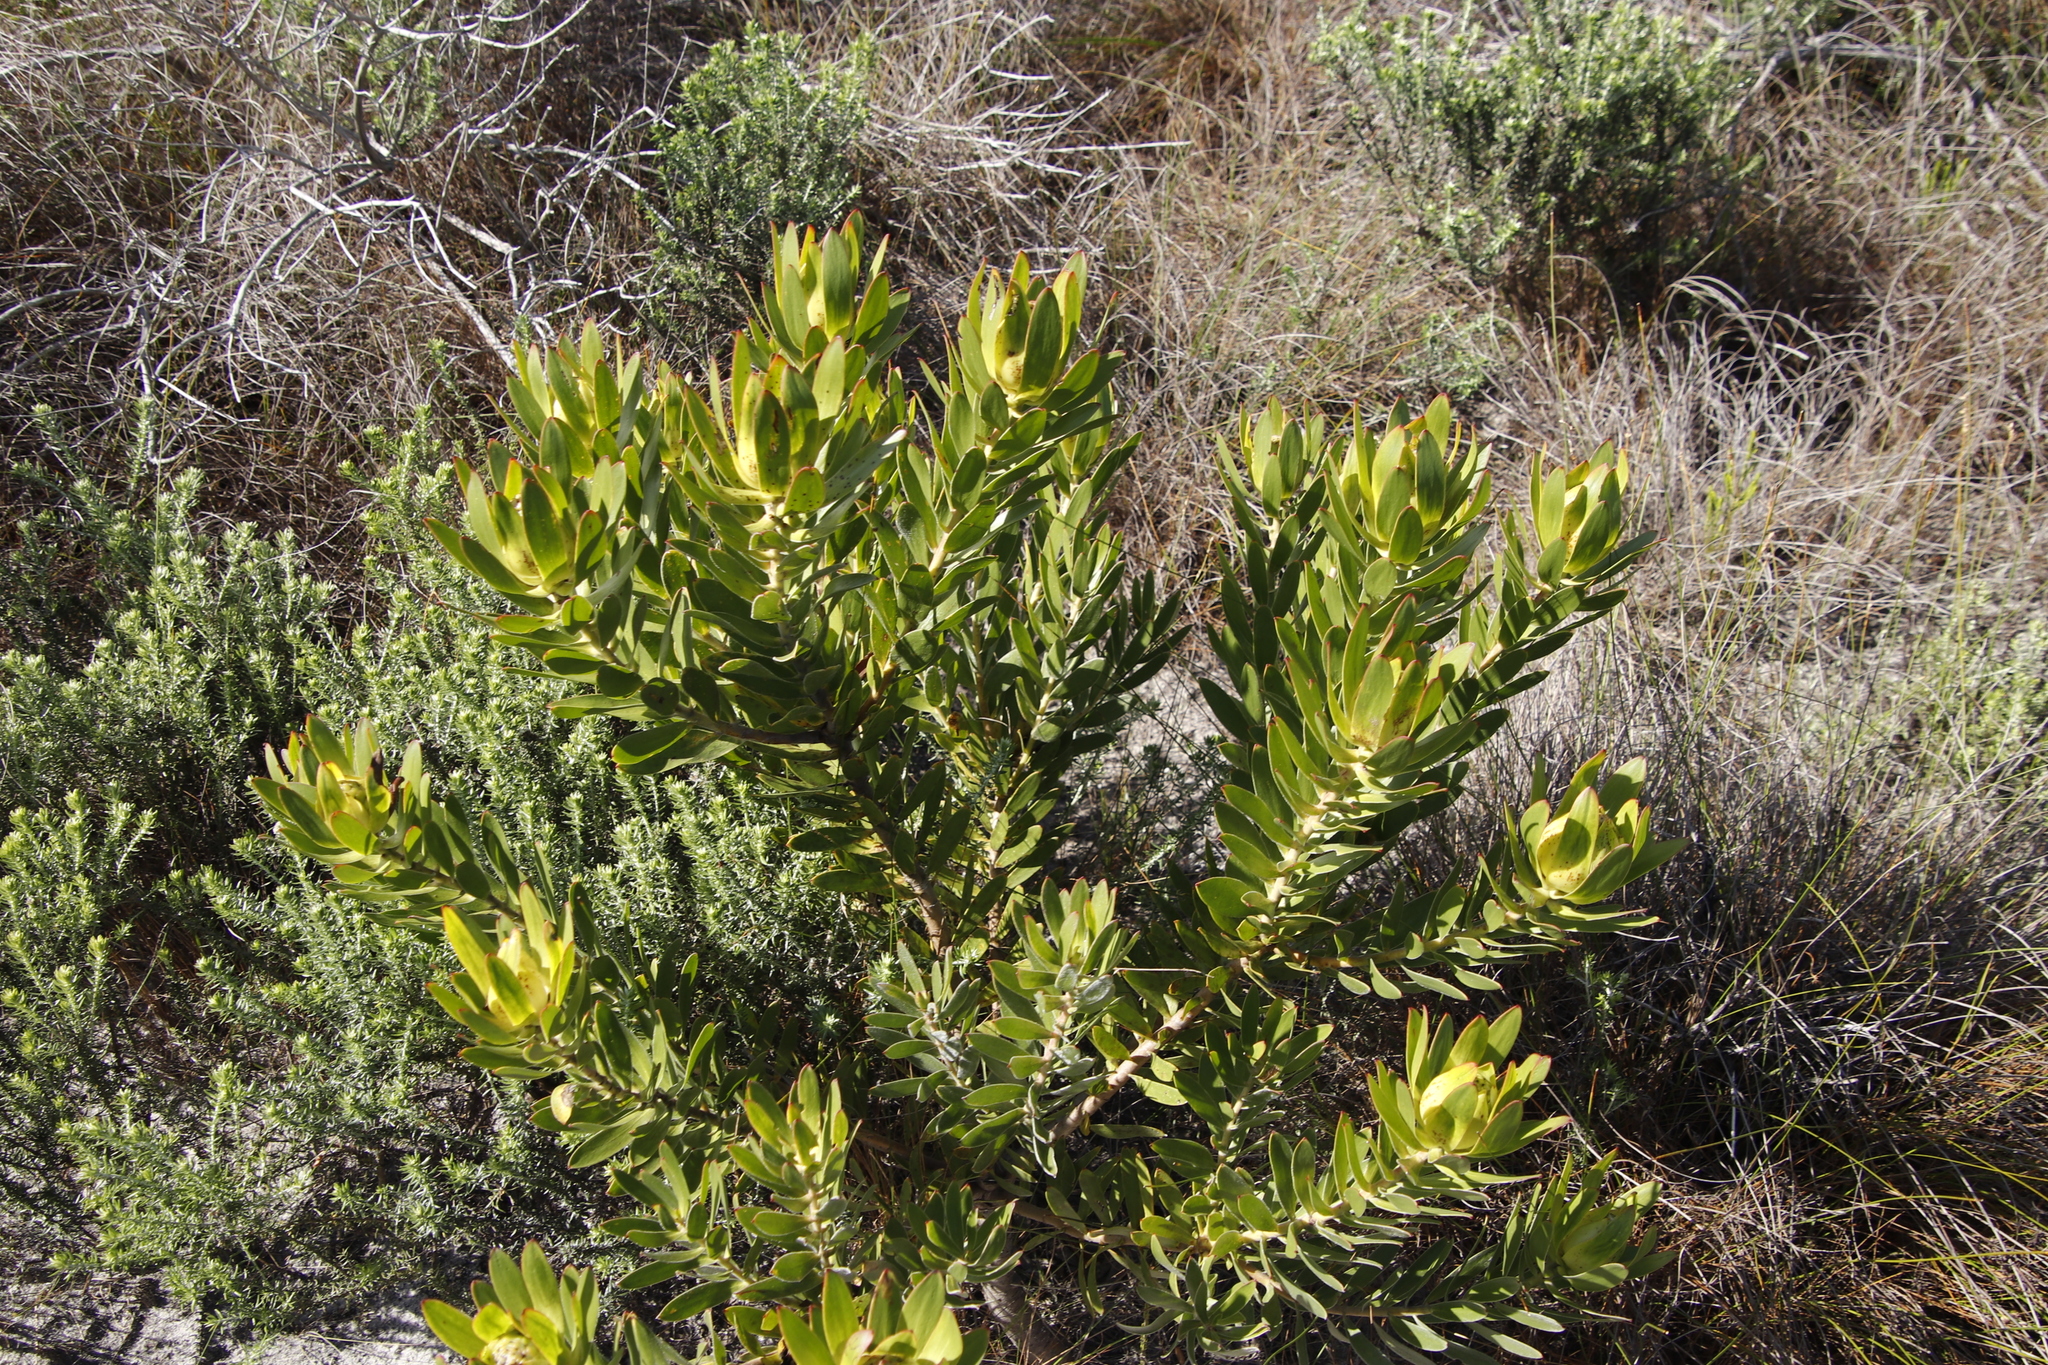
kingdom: Plantae
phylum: Tracheophyta
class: Magnoliopsida
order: Proteales
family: Proteaceae
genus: Leucadendron
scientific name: Leucadendron laureolum
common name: Golden sunshinebush
